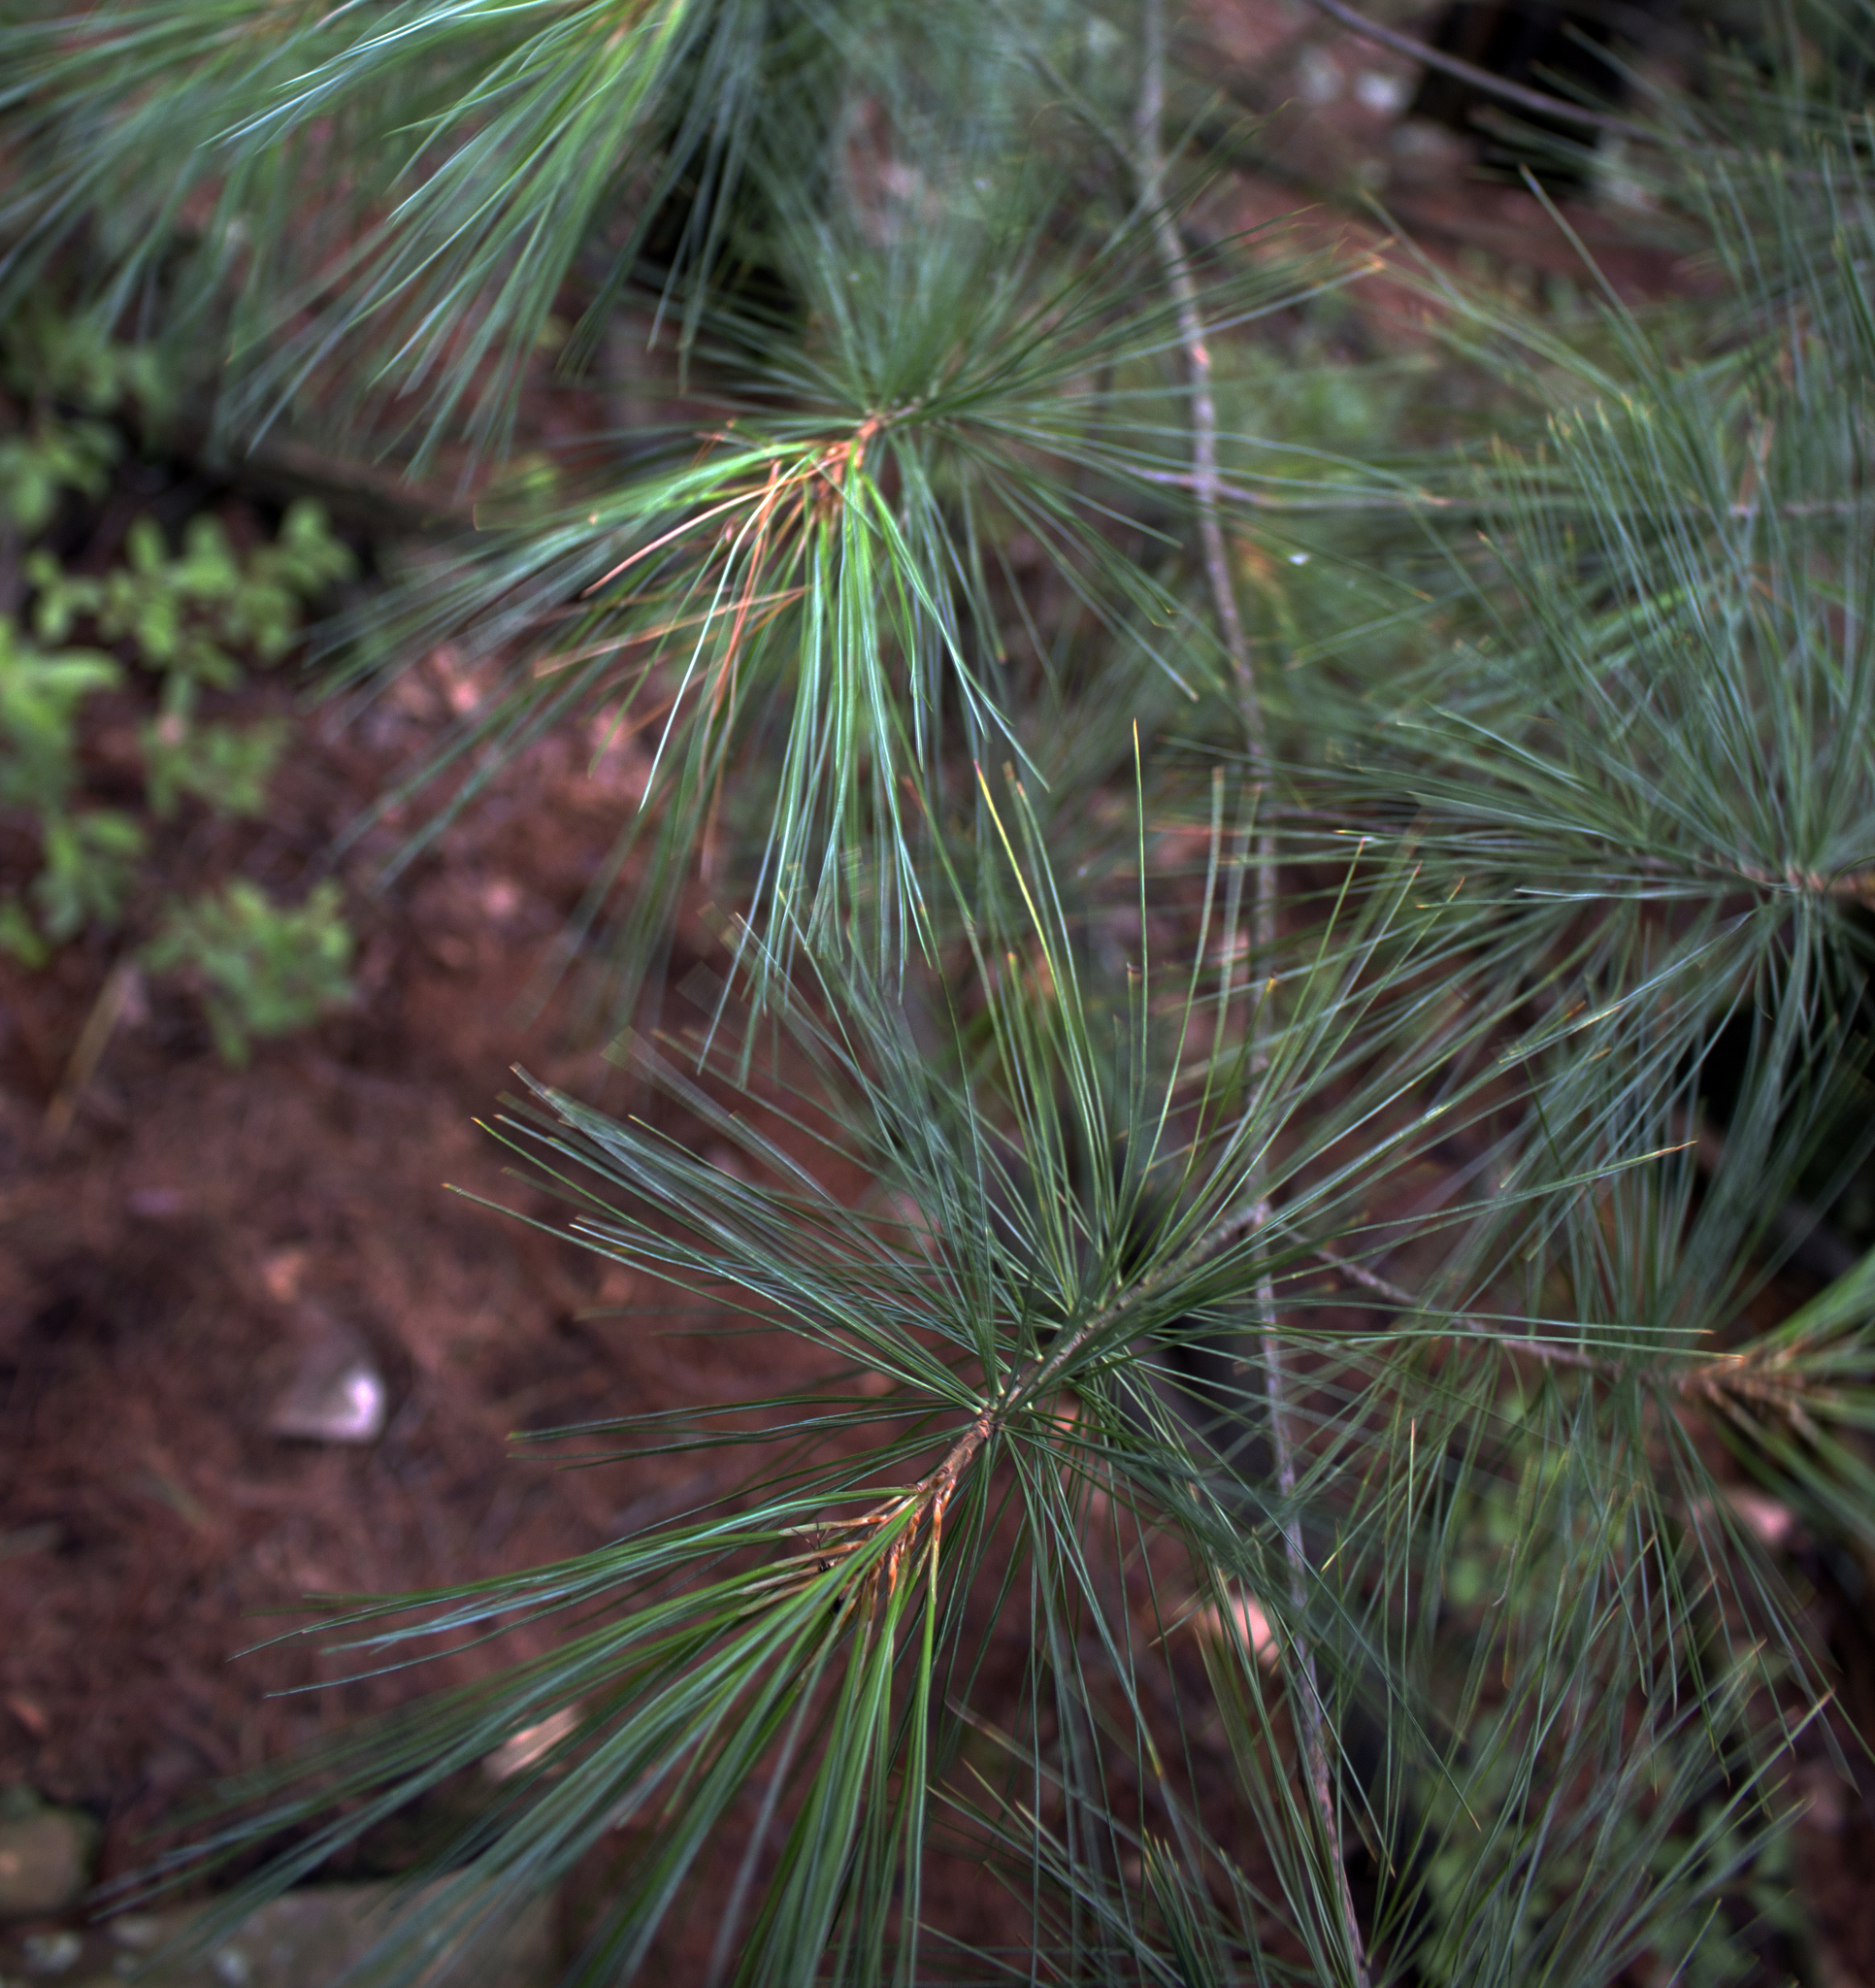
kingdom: Plantae
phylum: Tracheophyta
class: Pinopsida
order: Pinales
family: Pinaceae
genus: Pinus
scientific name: Pinus strobus
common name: Weymouth pine
